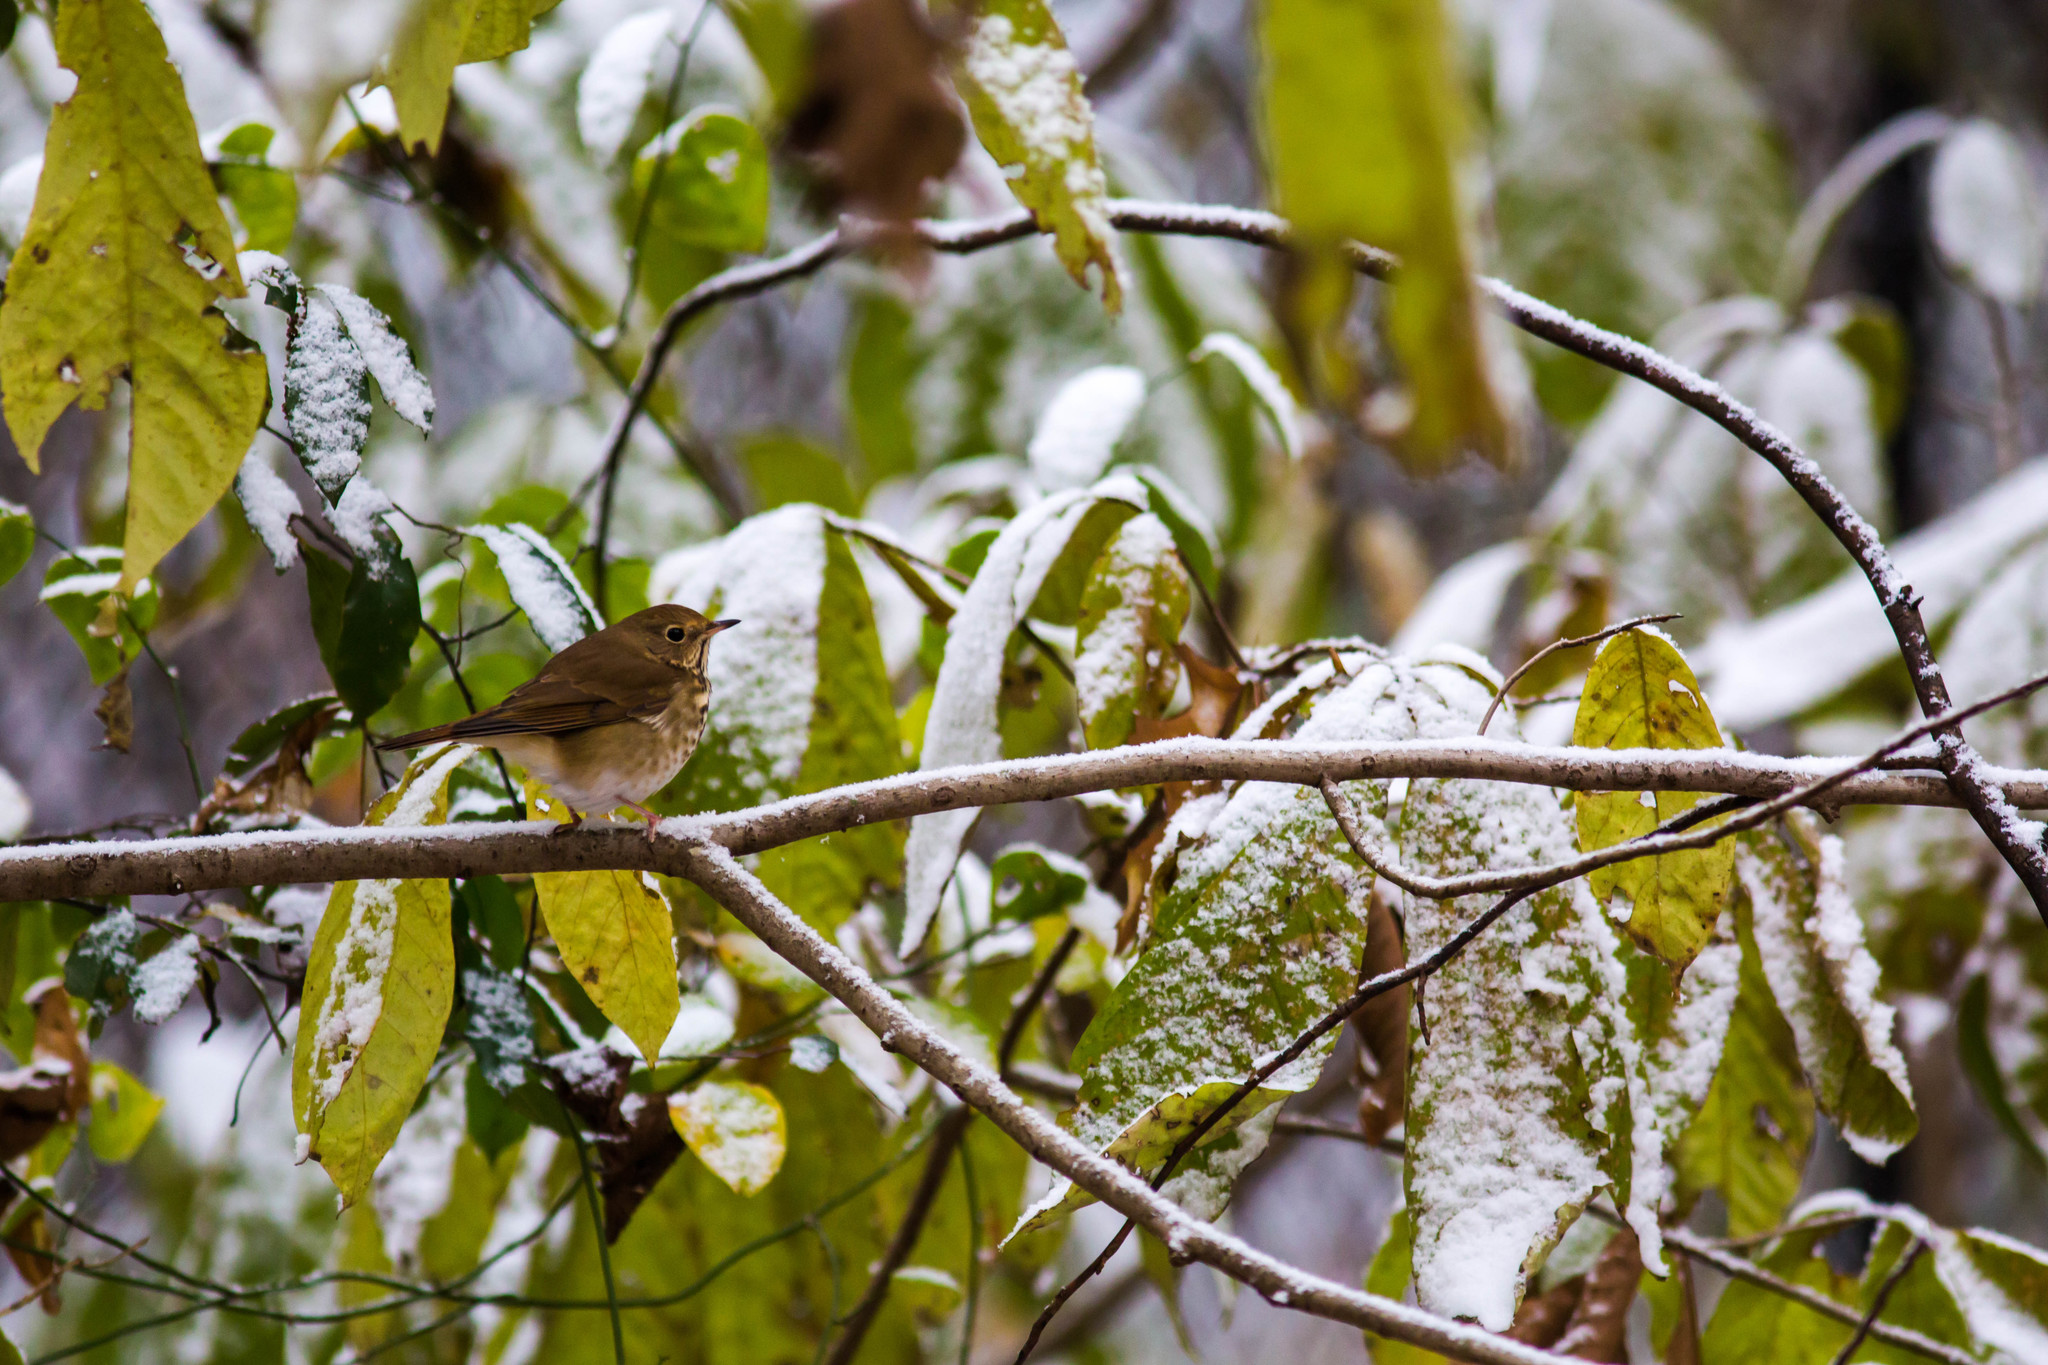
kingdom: Animalia
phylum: Chordata
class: Aves
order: Passeriformes
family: Turdidae
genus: Catharus
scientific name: Catharus guttatus
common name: Hermit thrush
